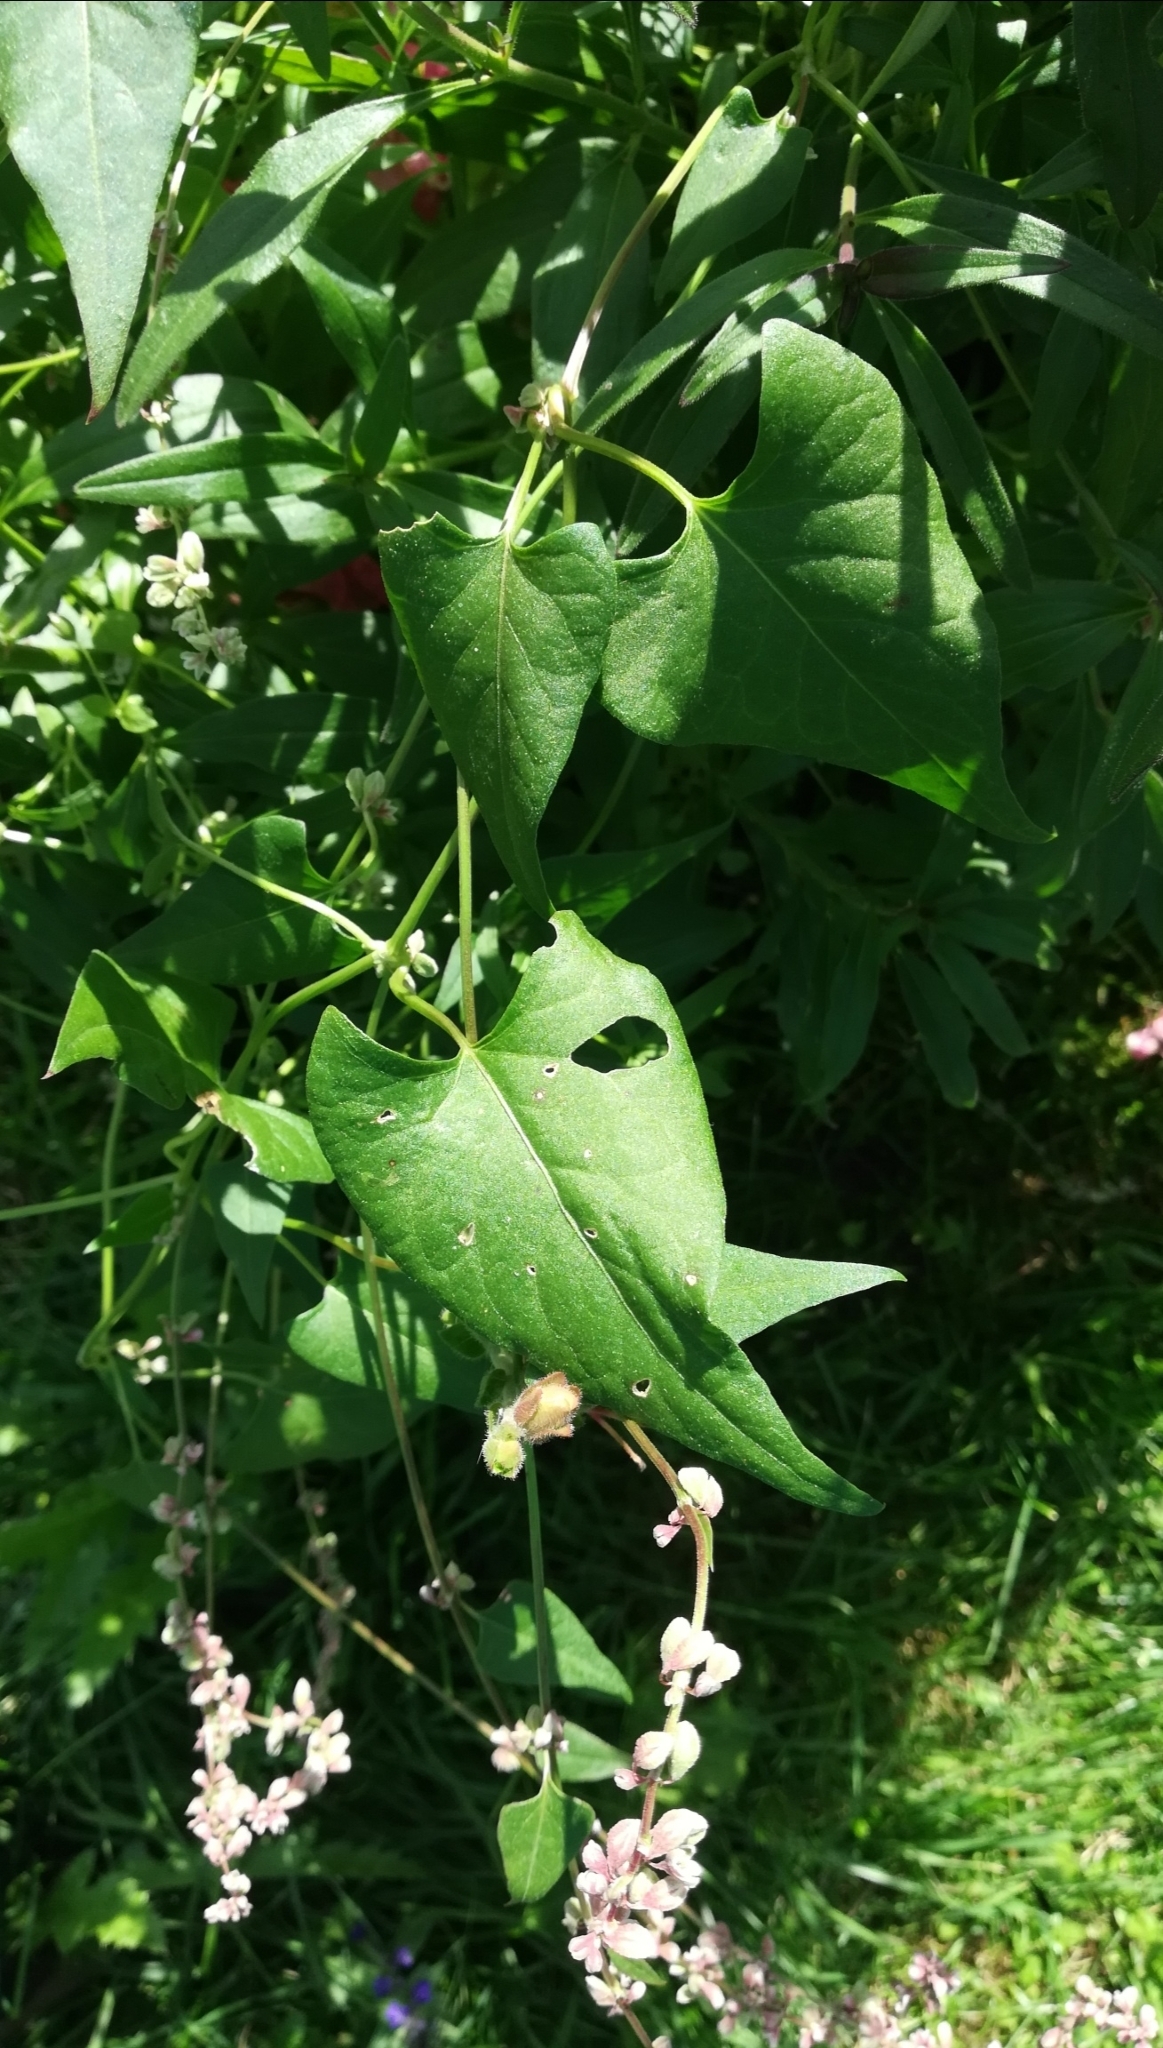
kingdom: Plantae
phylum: Tracheophyta
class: Magnoliopsida
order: Caryophyllales
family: Polygonaceae
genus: Fallopia
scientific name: Fallopia convolvulus
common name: Black bindweed
